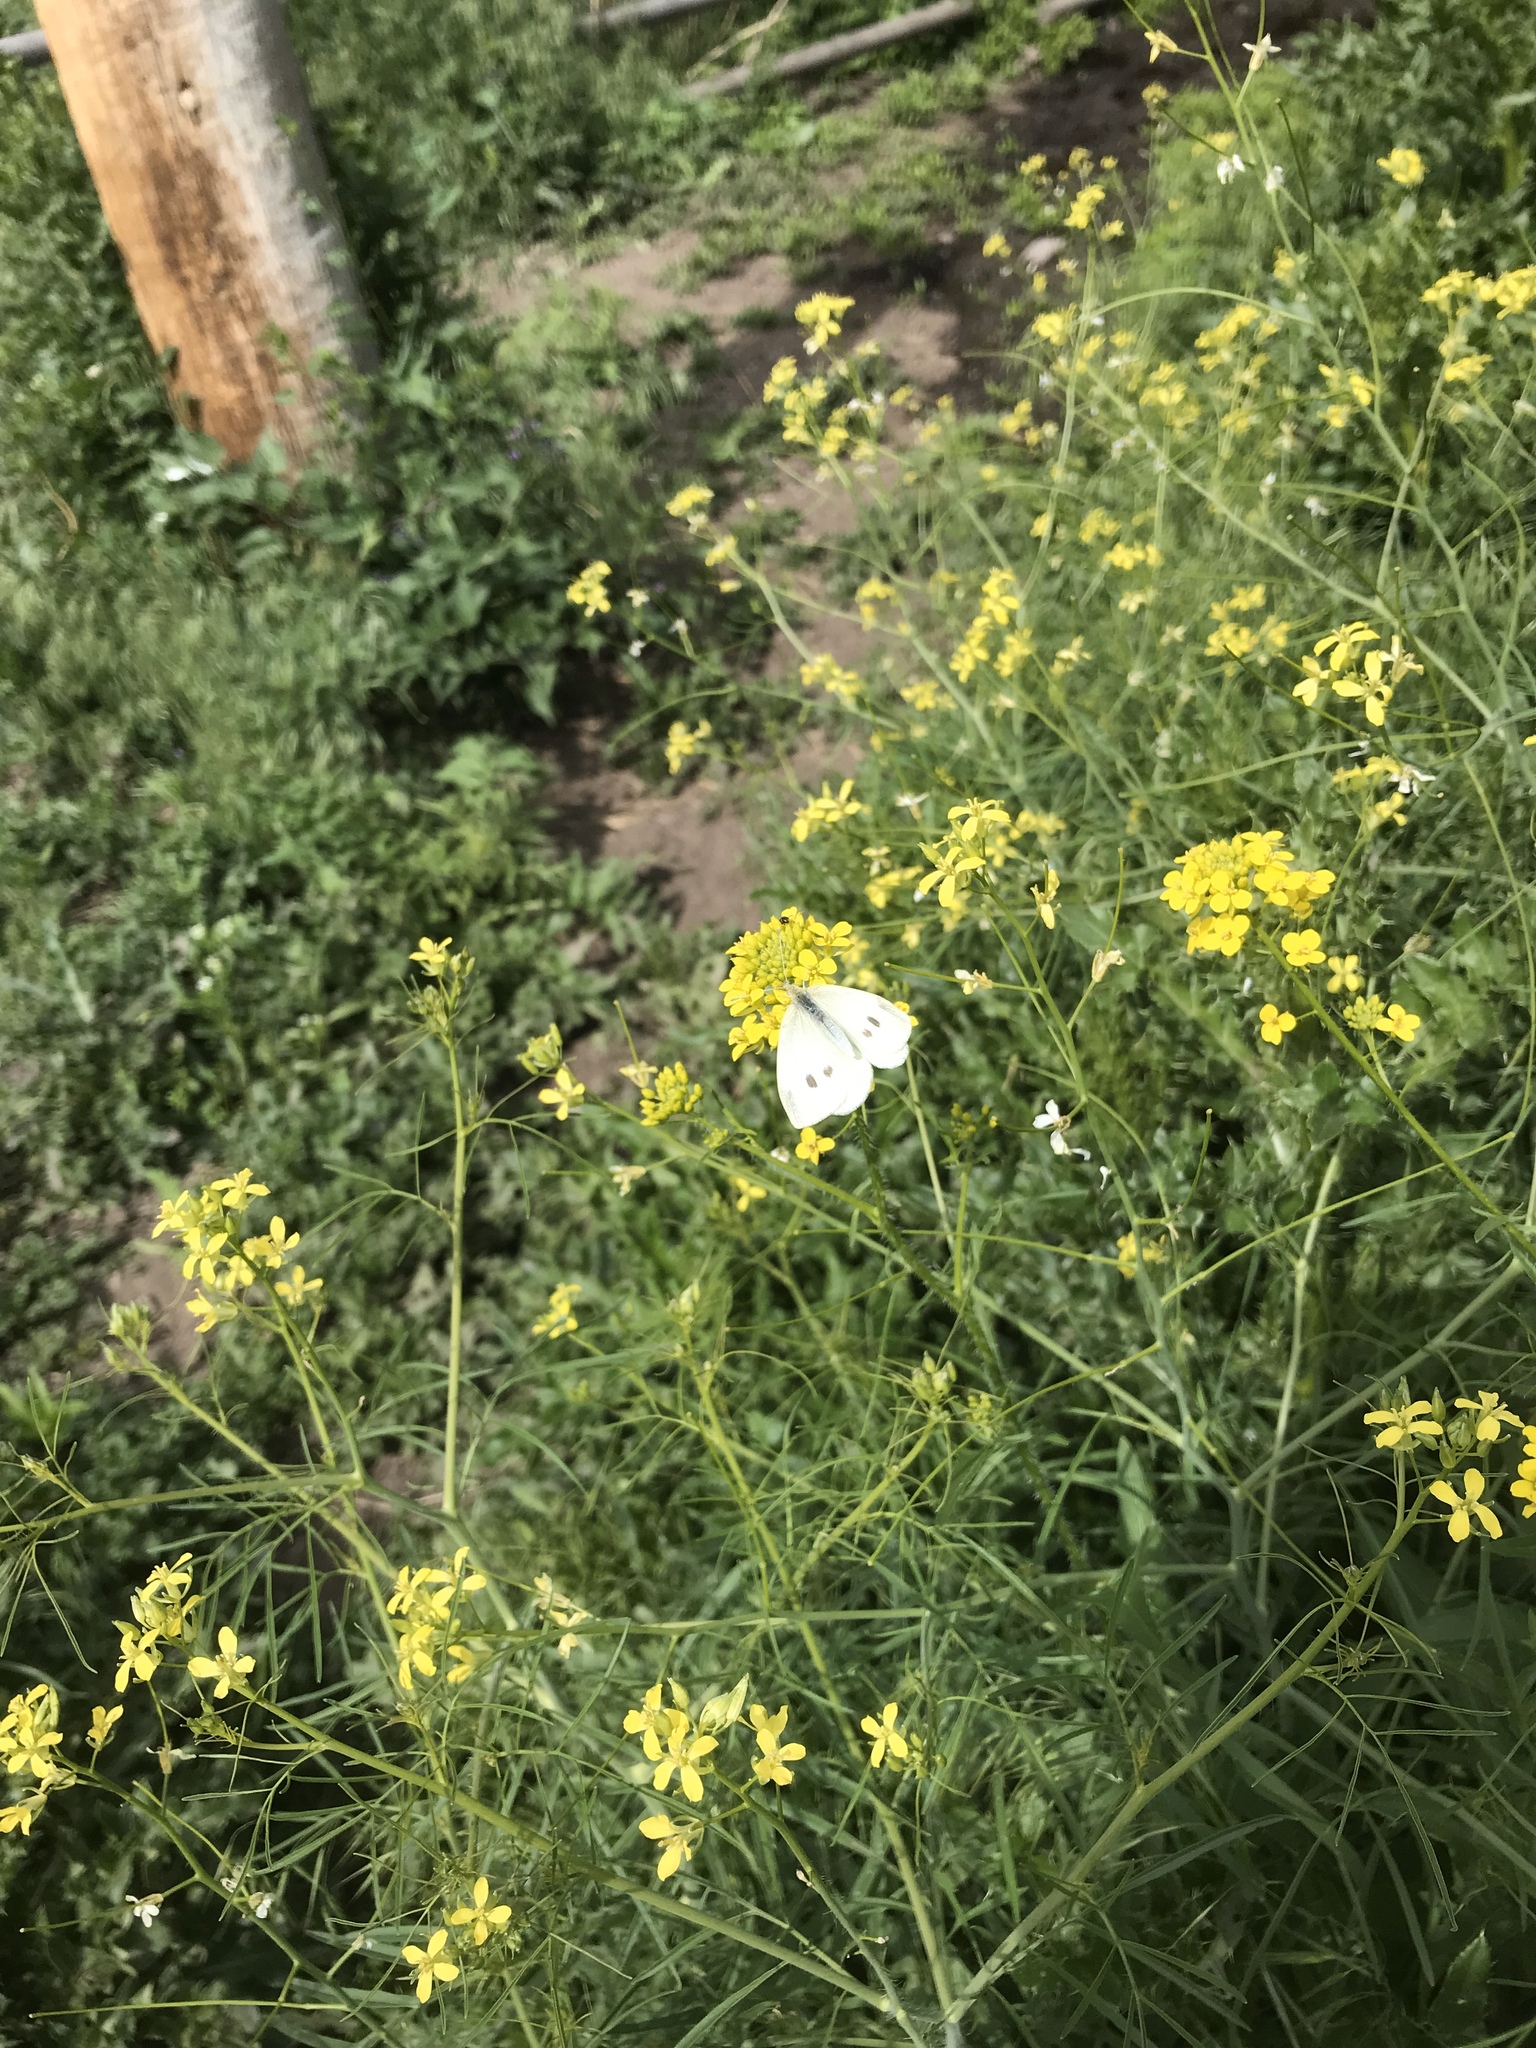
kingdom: Animalia
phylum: Arthropoda
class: Insecta
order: Lepidoptera
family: Pieridae
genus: Pieris
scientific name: Pieris rapae
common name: Small white
